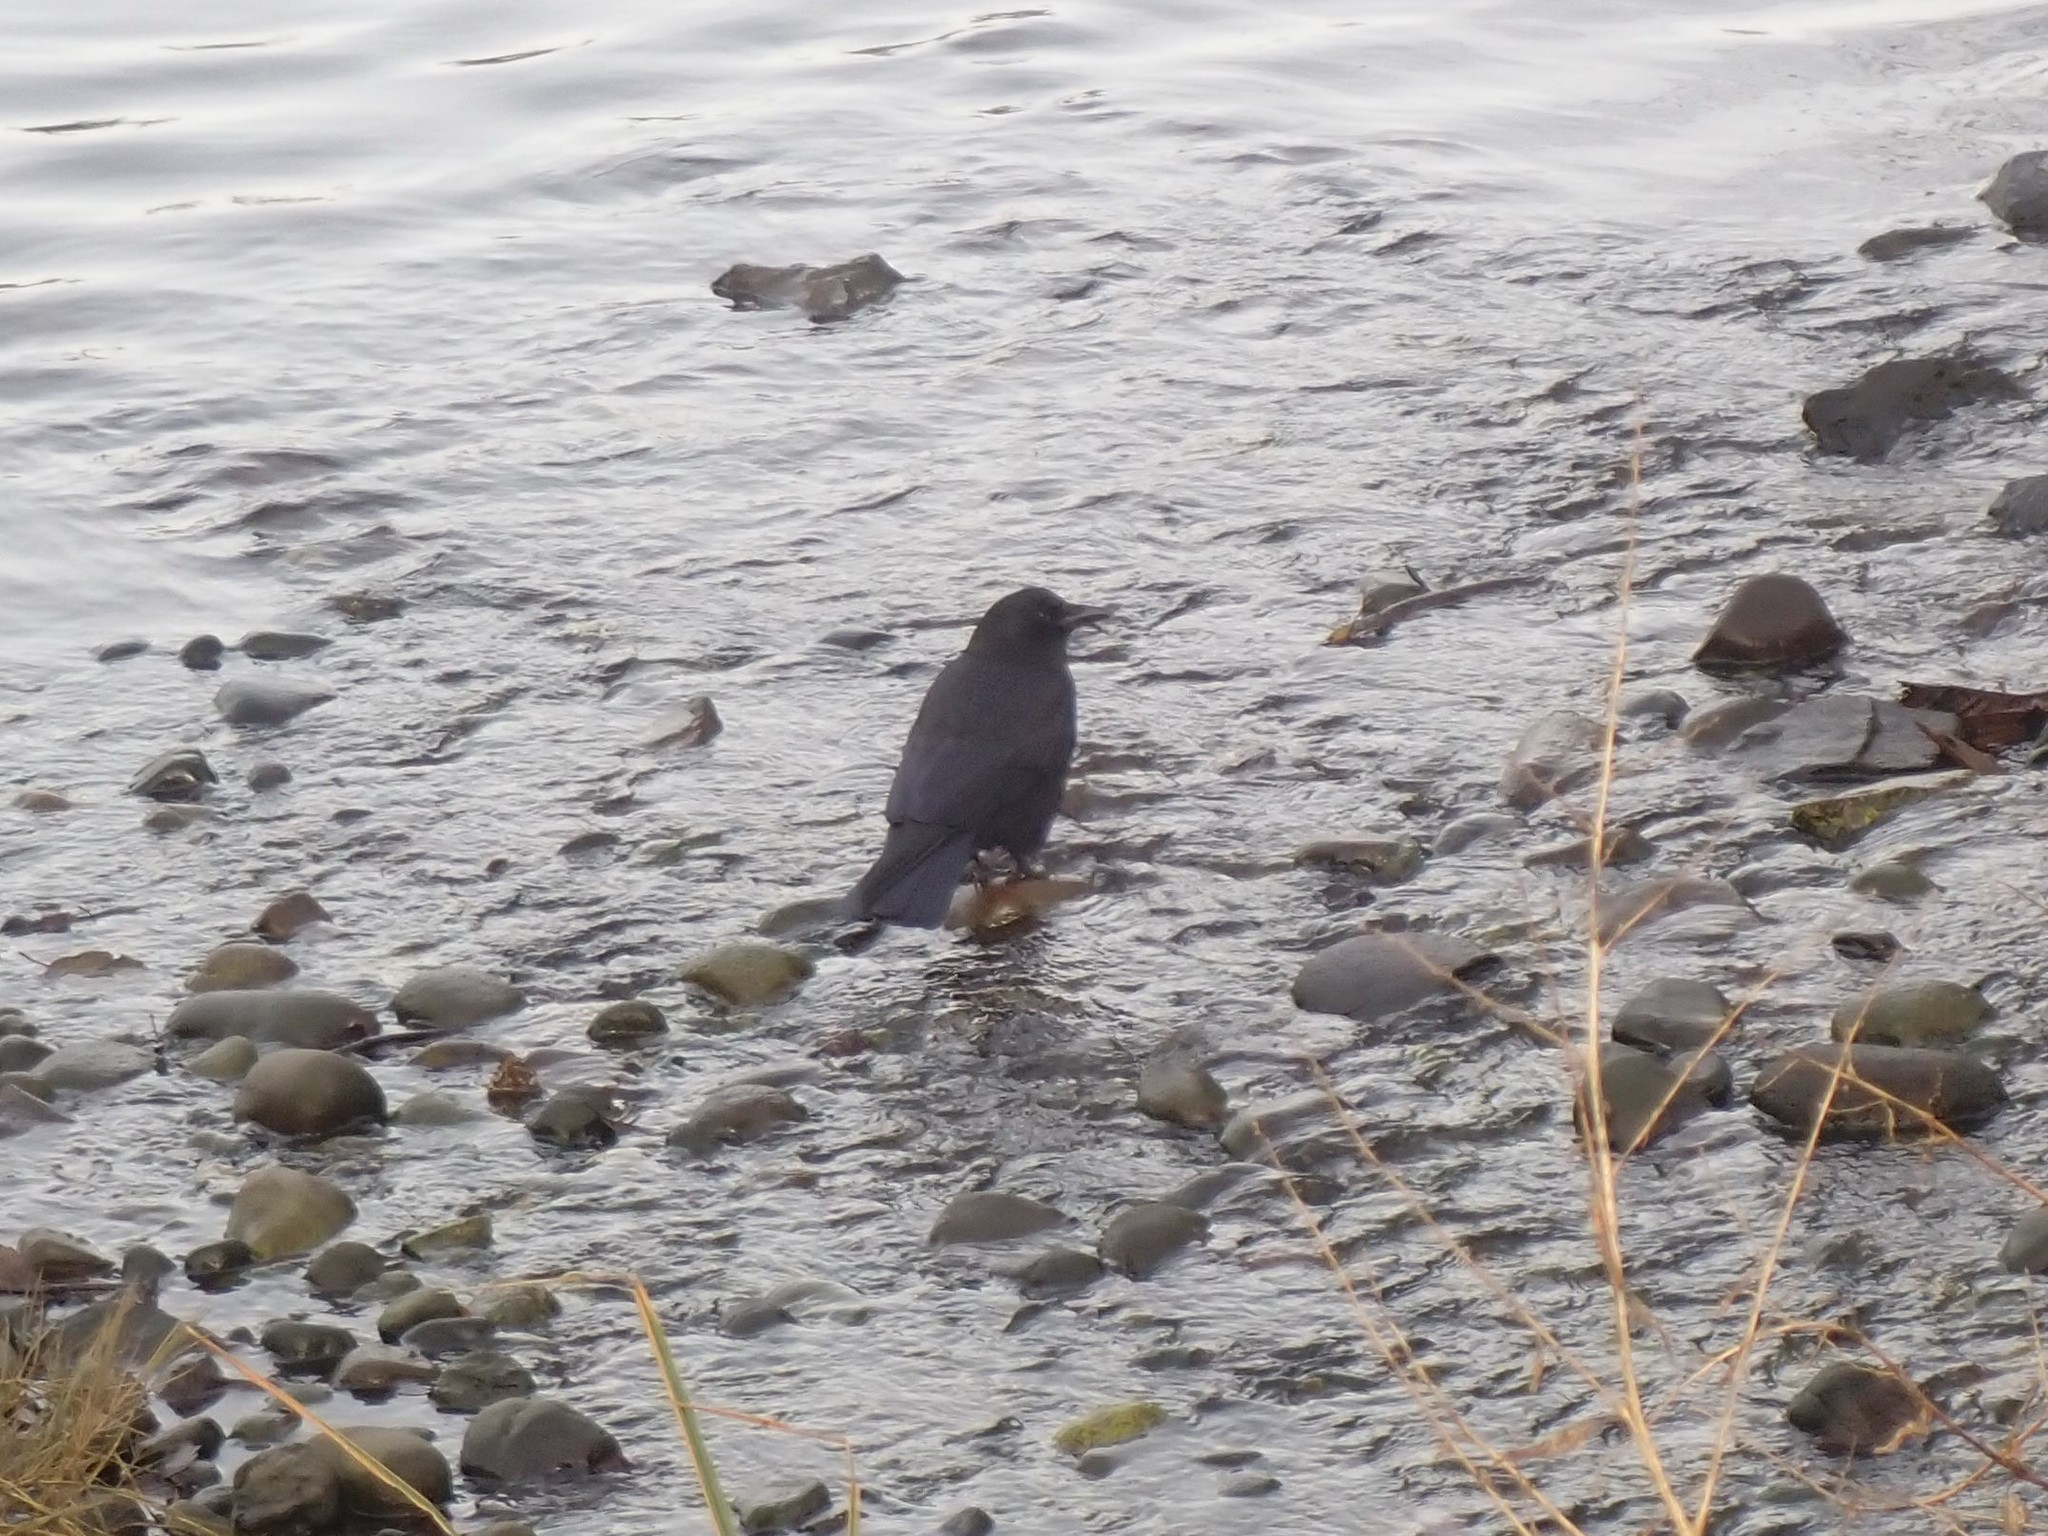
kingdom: Animalia
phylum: Chordata
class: Aves
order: Passeriformes
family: Corvidae
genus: Corvus
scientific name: Corvus brachyrhynchos
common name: American crow
